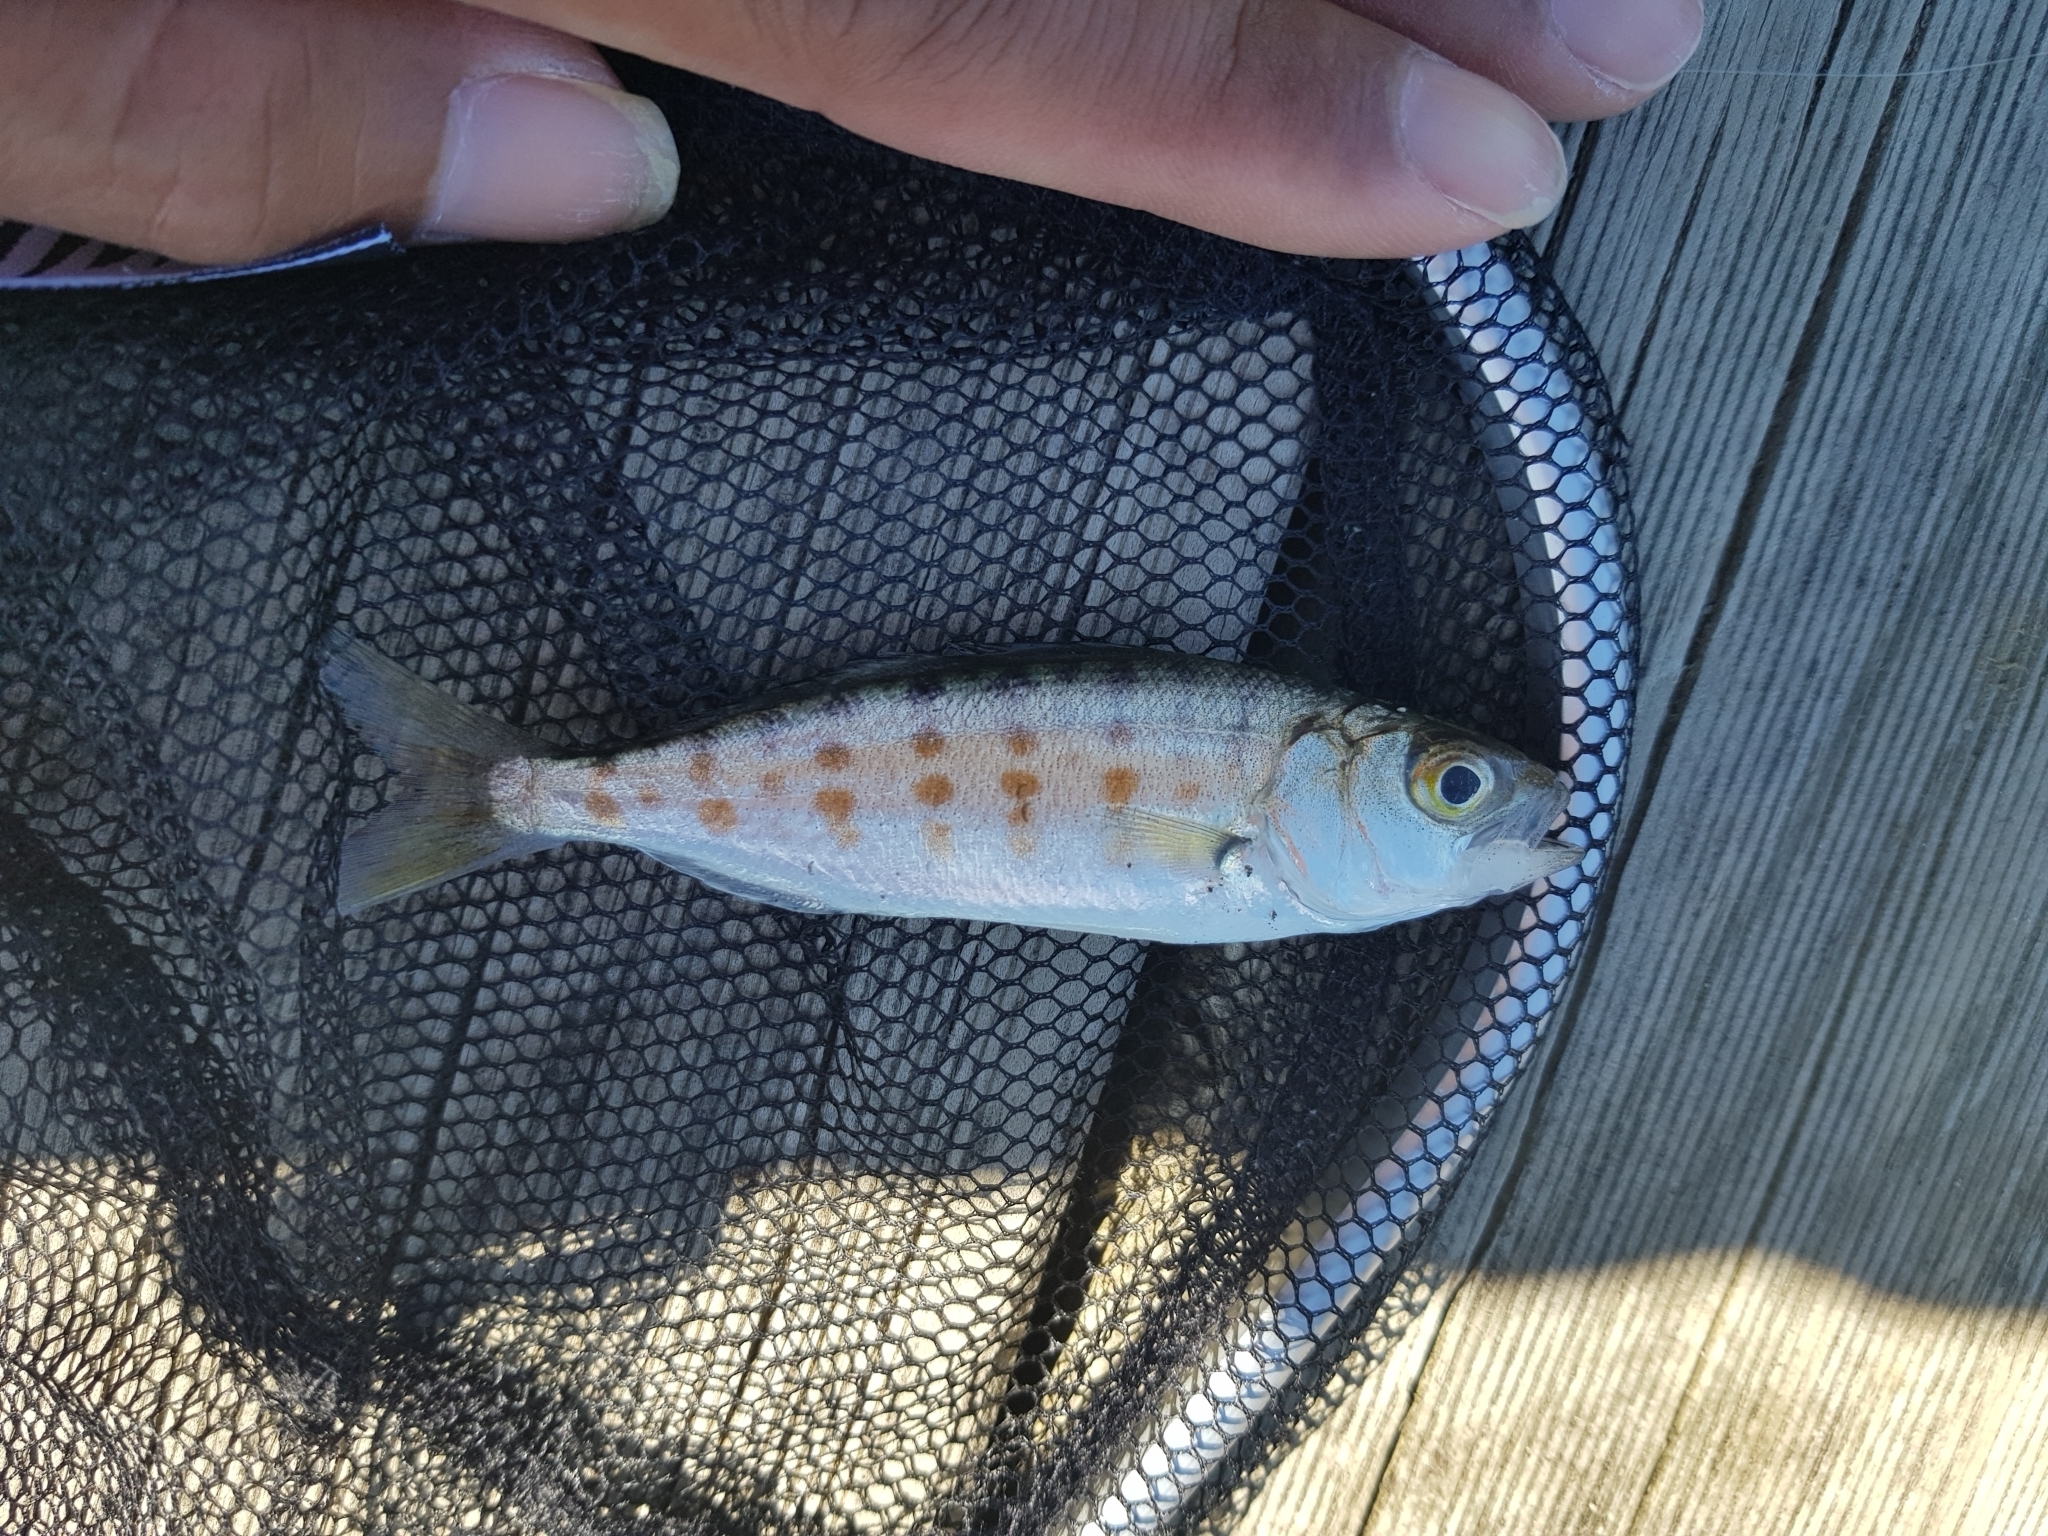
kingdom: Animalia
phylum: Chordata
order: Perciformes
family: Arripidae
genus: Arripis
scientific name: Arripis trutta
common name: Kahawai
